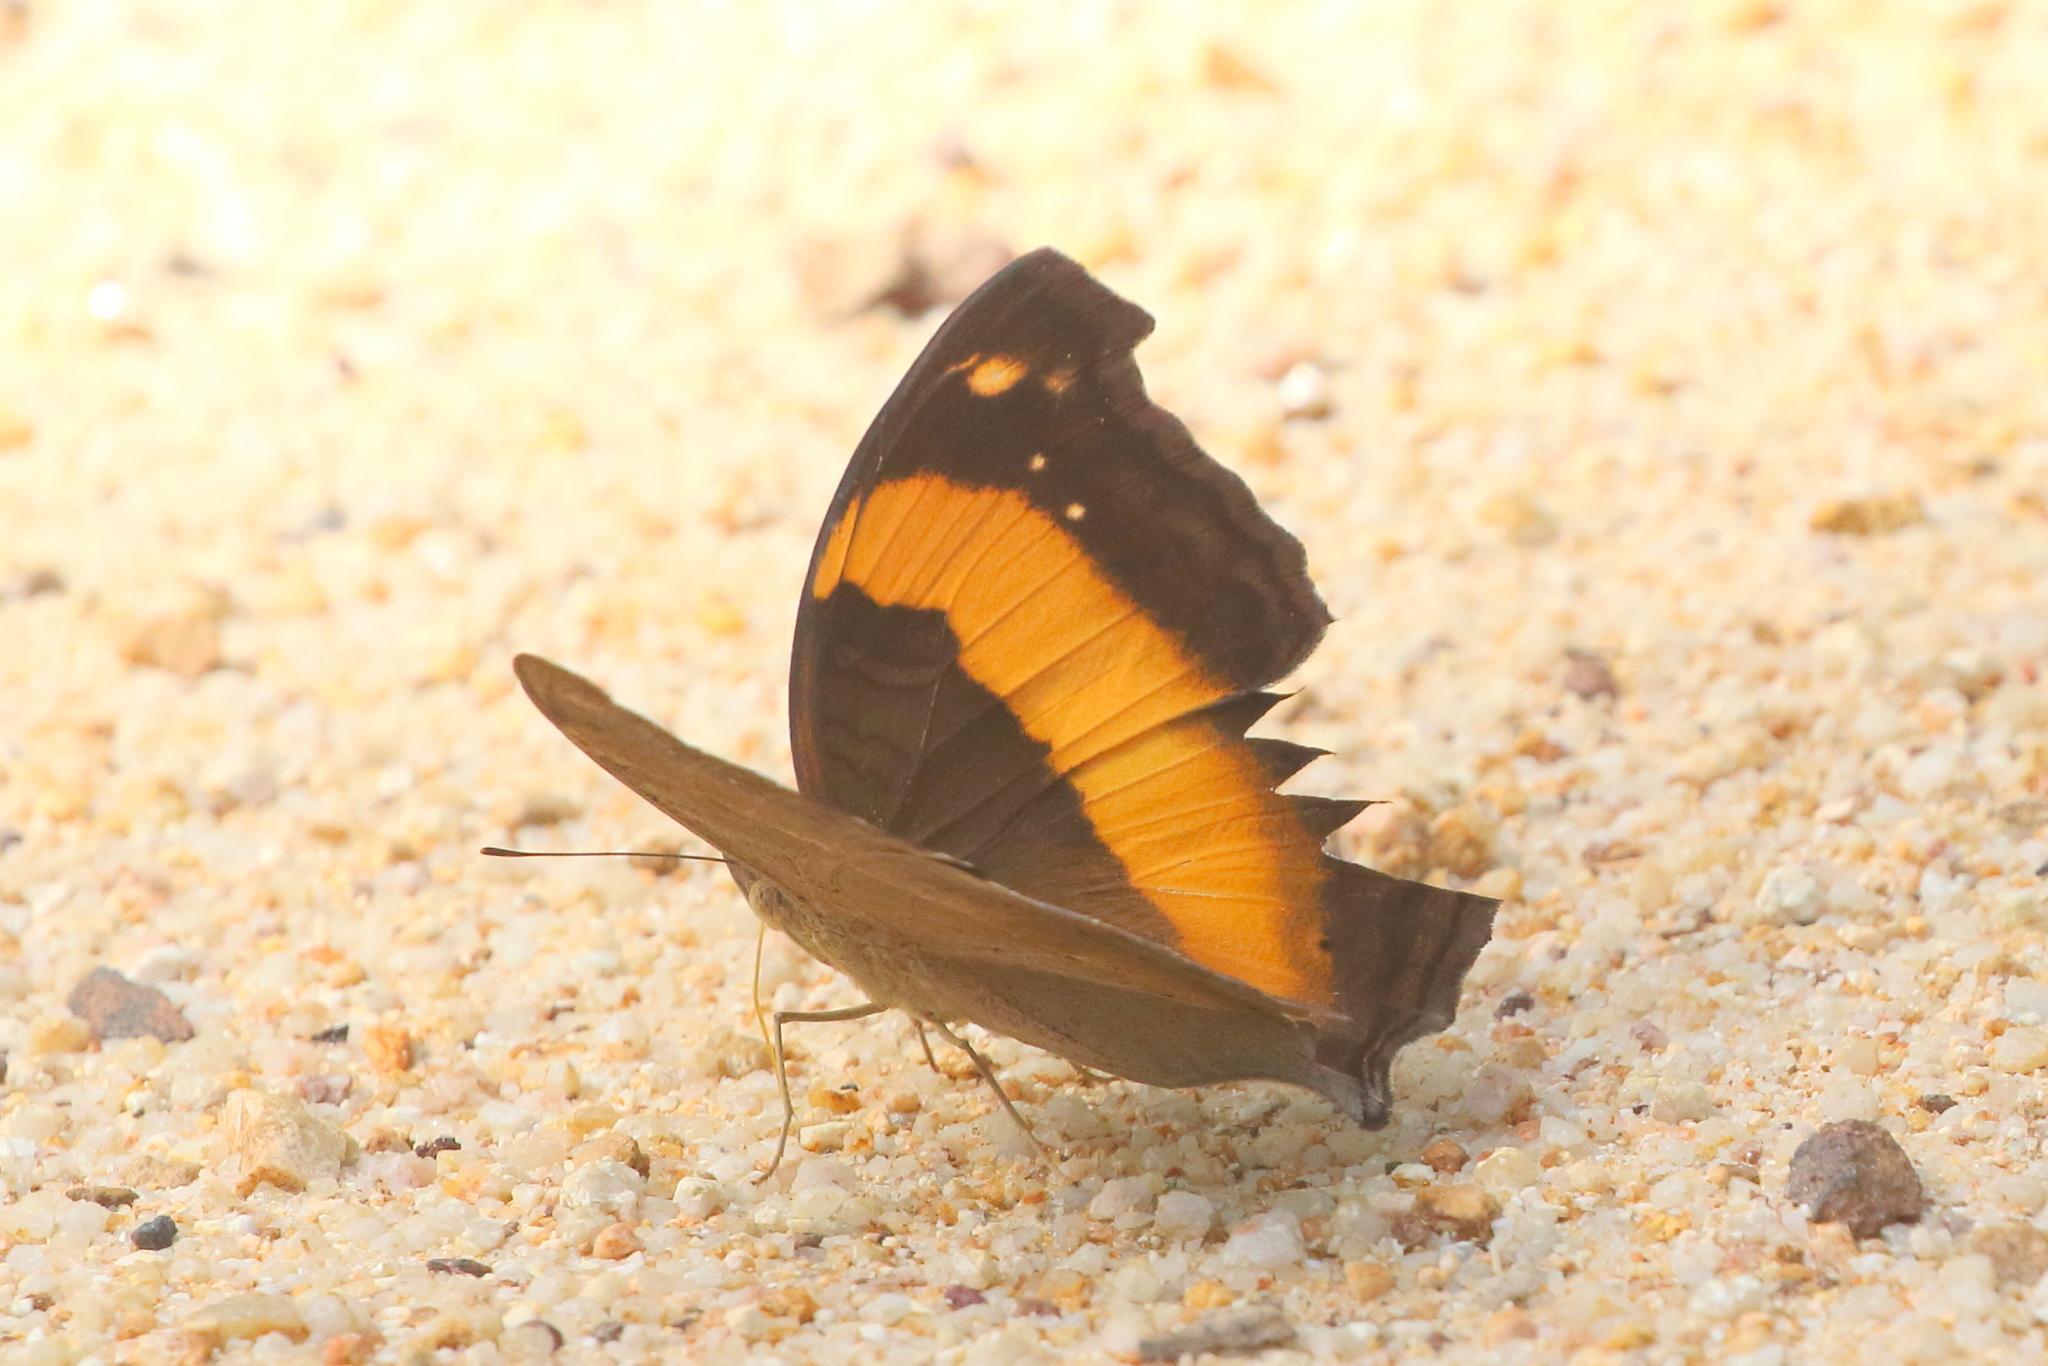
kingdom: Animalia
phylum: Arthropoda
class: Insecta
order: Lepidoptera
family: Nymphalidae
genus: Yoma
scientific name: Yoma sabina
